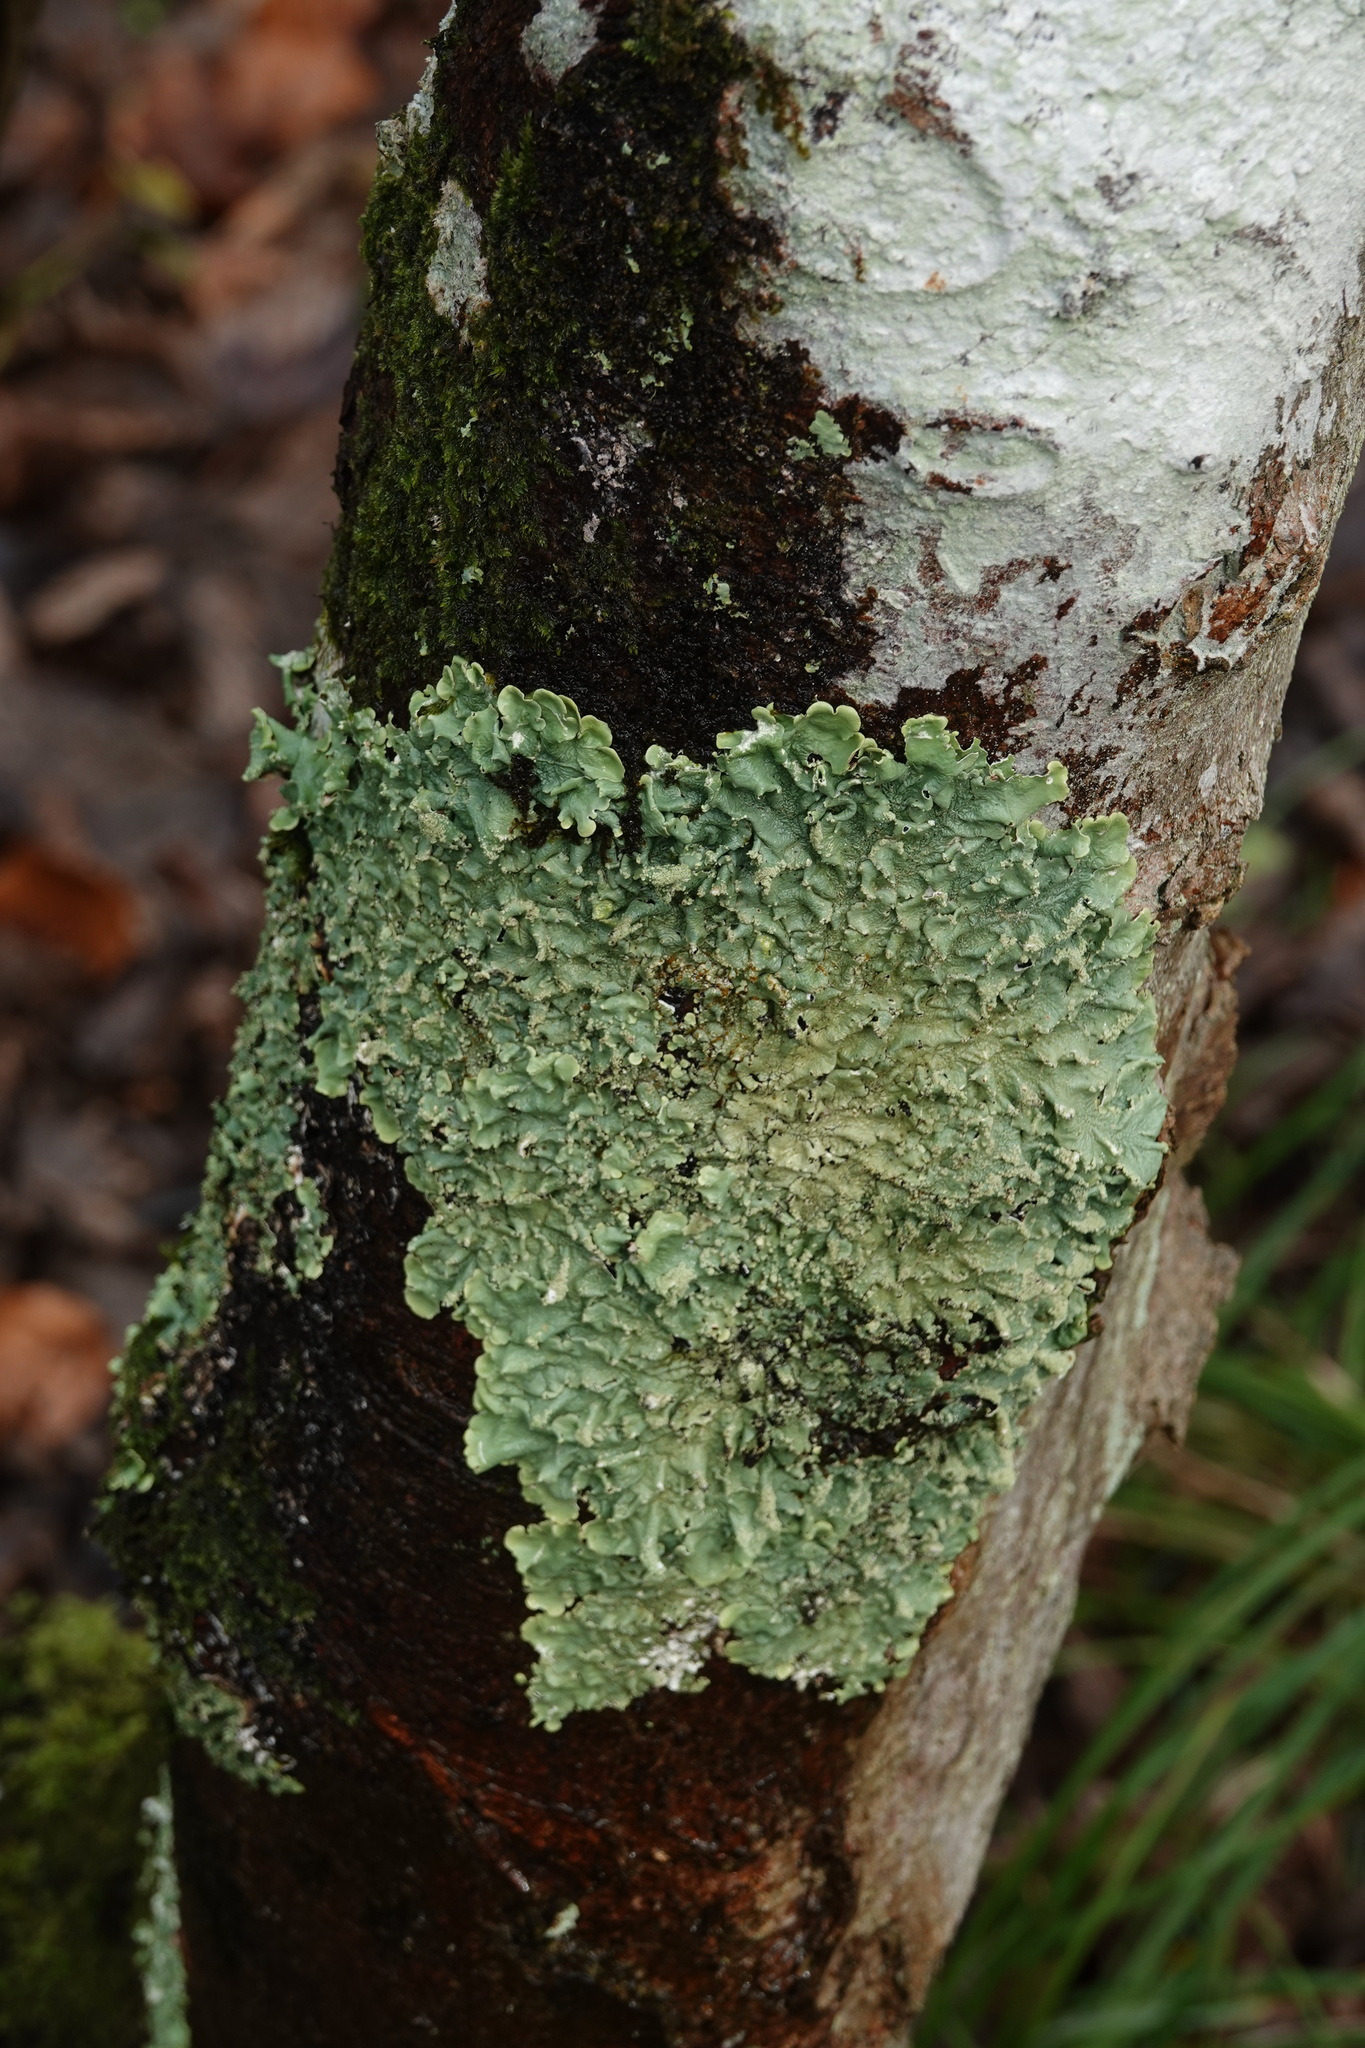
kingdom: Fungi
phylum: Ascomycota
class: Lecanoromycetes
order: Lecanorales
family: Parmeliaceae
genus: Flavoparmelia
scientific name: Flavoparmelia caperata
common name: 40-mile per hour lichen
